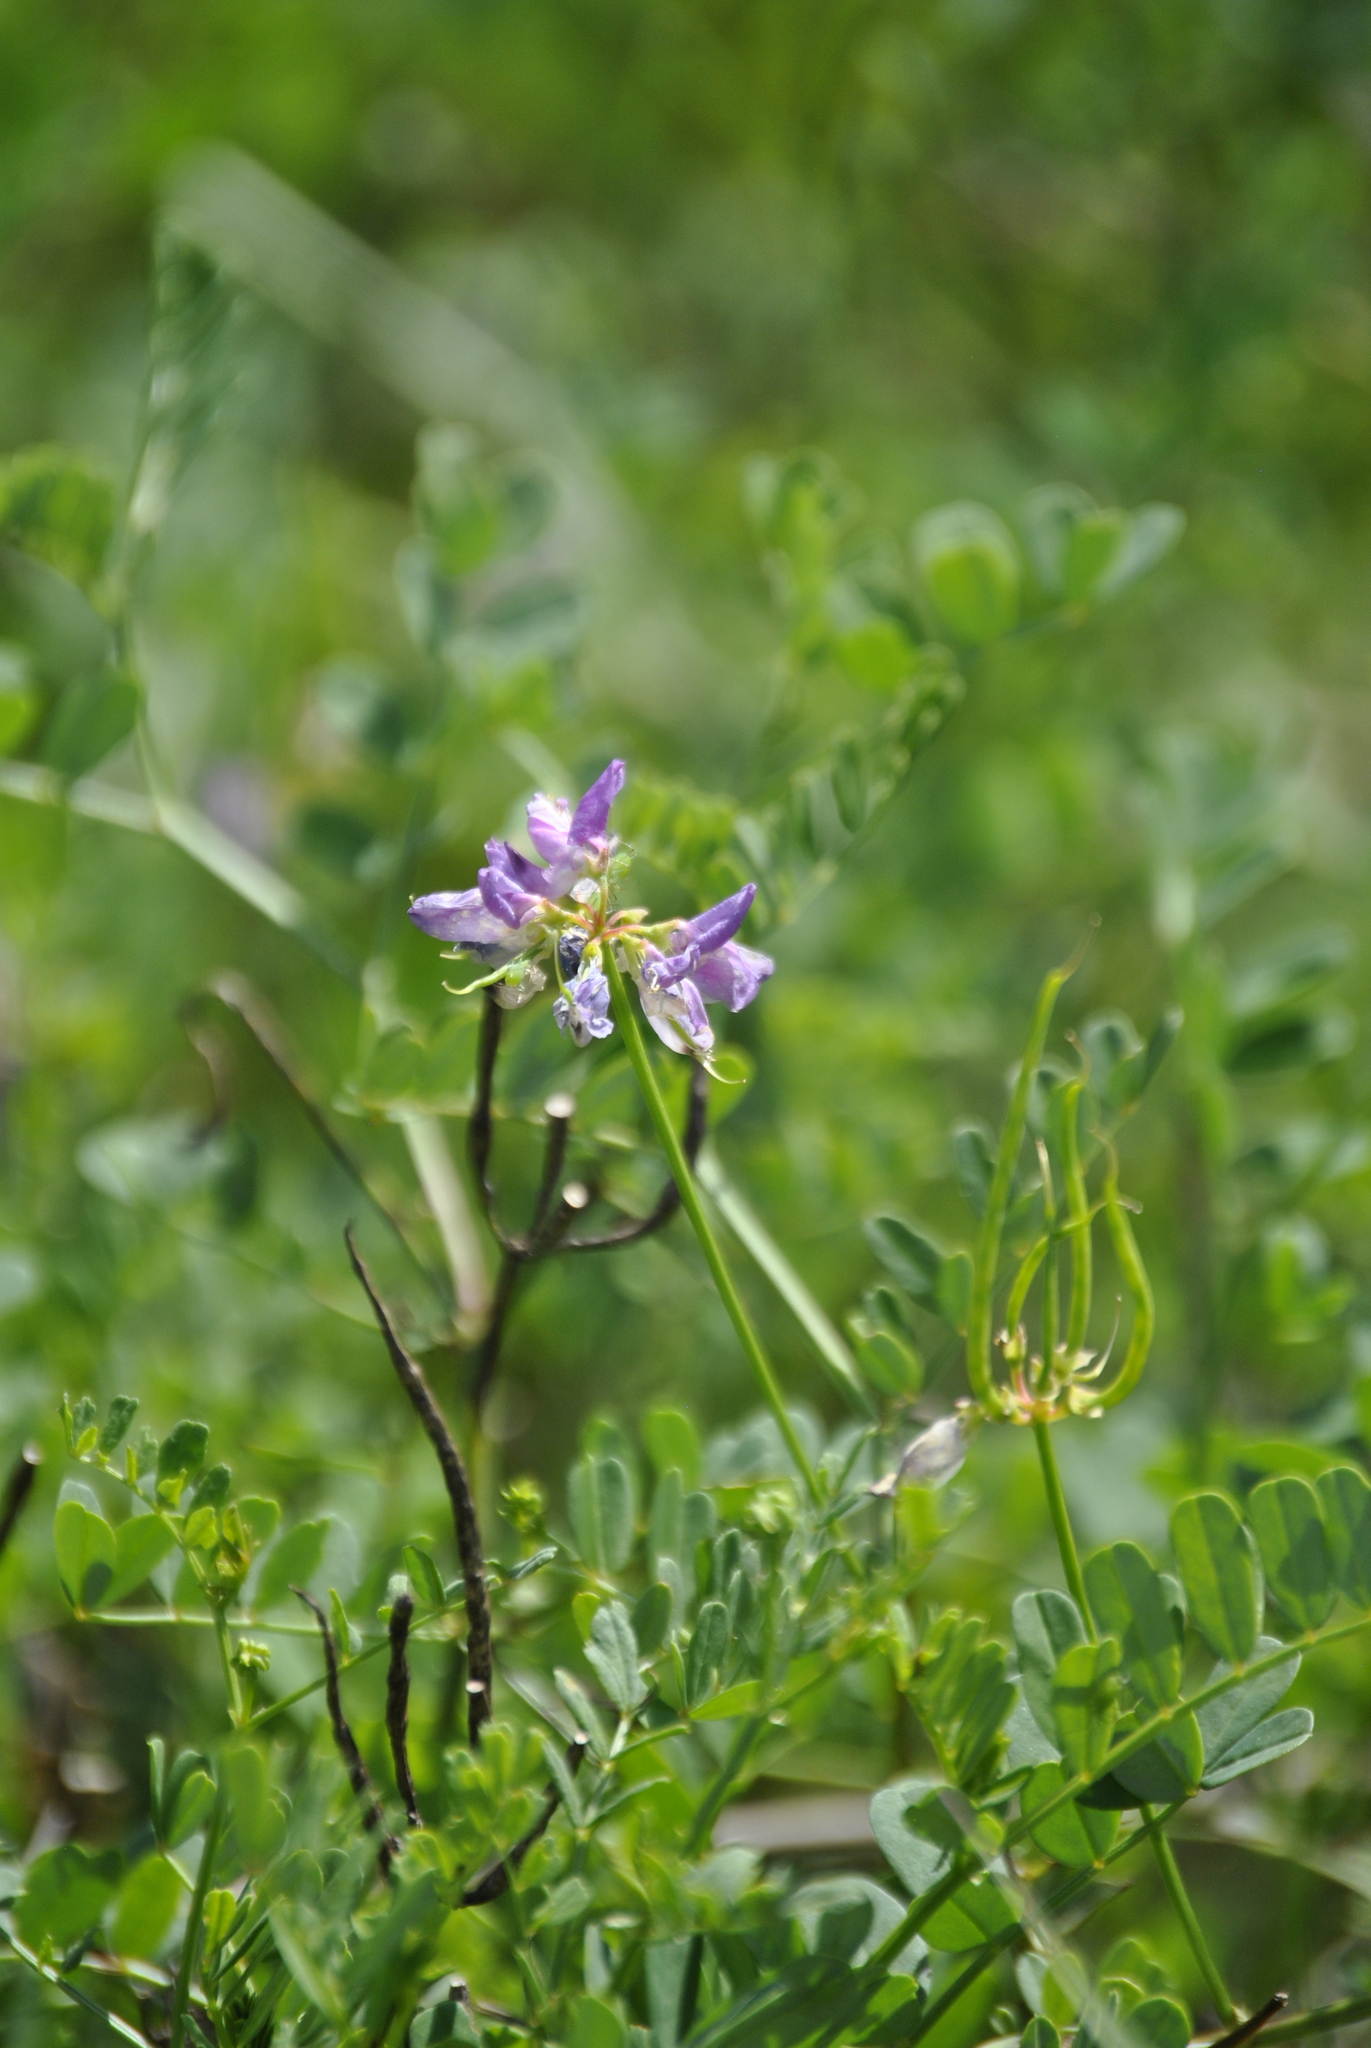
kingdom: Plantae
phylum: Tracheophyta
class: Magnoliopsida
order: Fabales
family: Fabaceae
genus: Coronilla
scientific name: Coronilla varia
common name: Crownvetch
